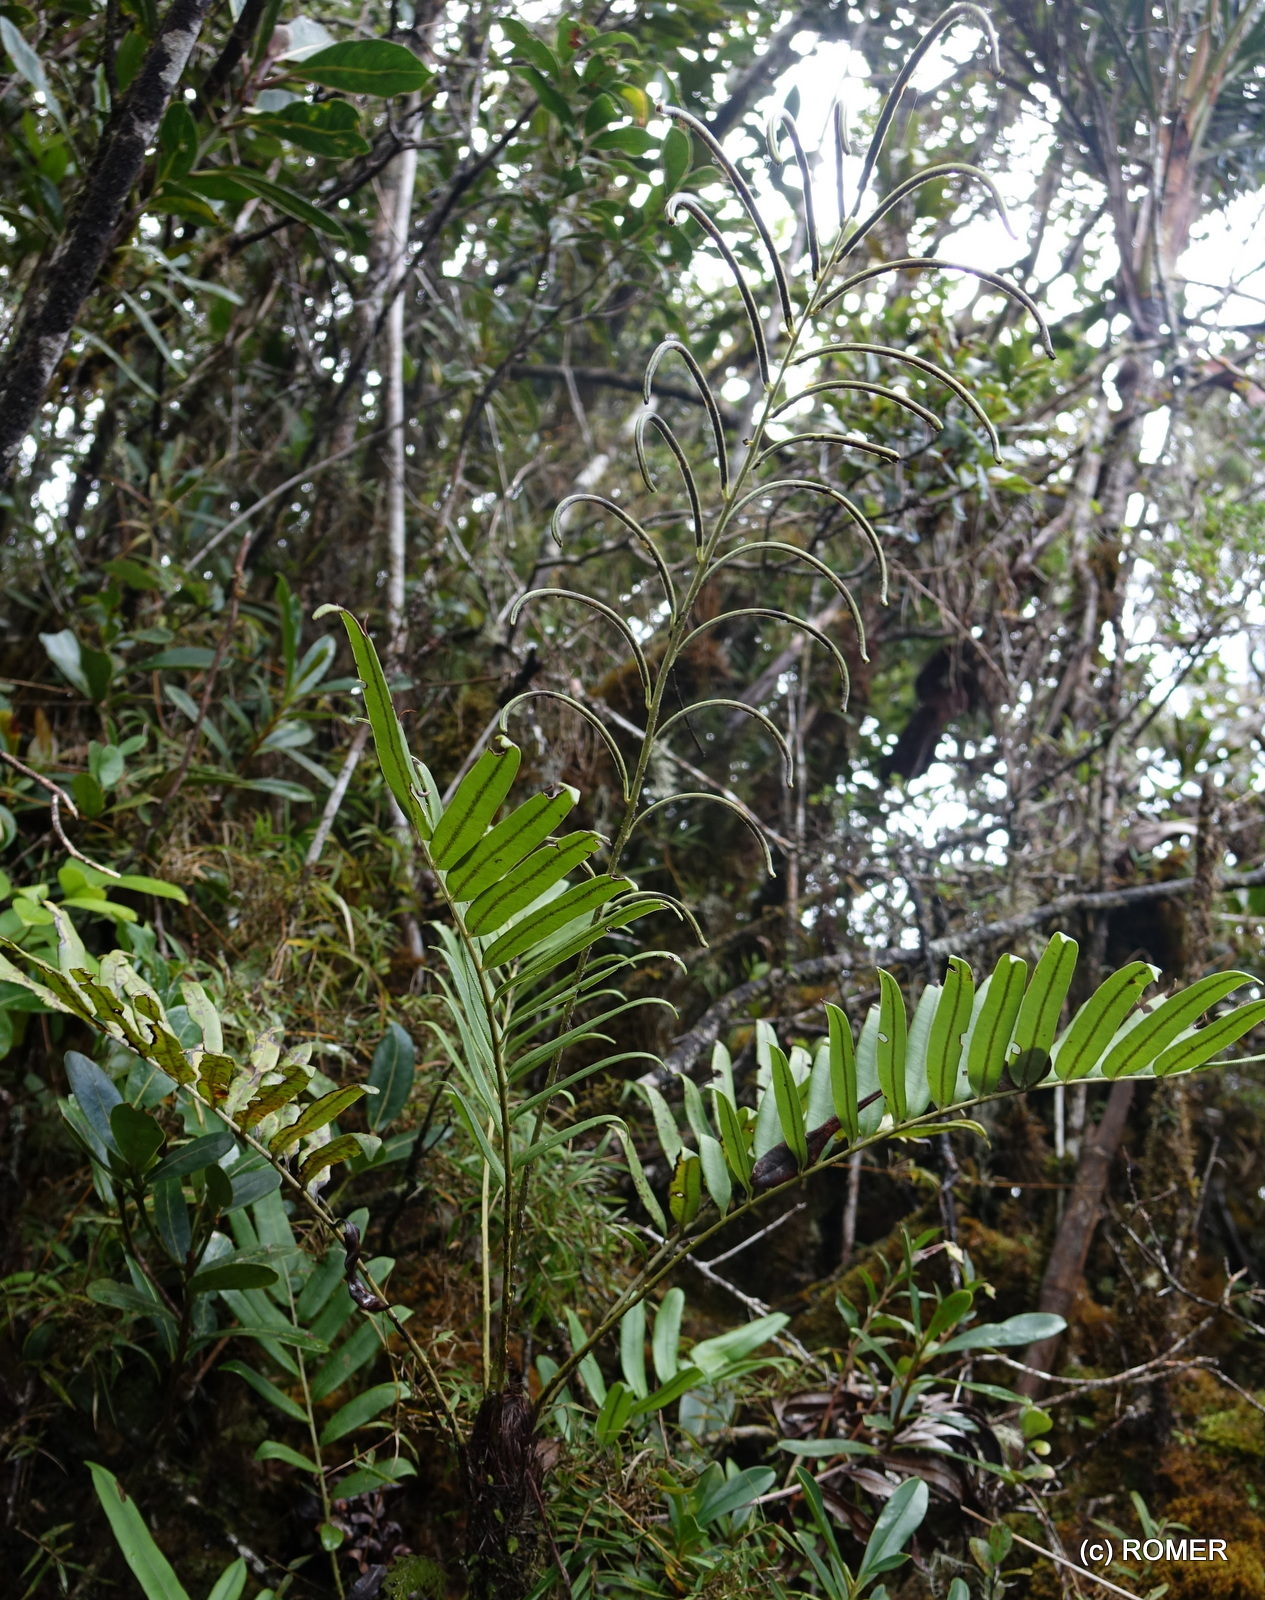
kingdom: Plantae
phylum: Tracheophyta
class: Polypodiopsida
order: Polypodiales
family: Blechnaceae
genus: Lomariocycas
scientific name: Lomariocycas longepetiolata
